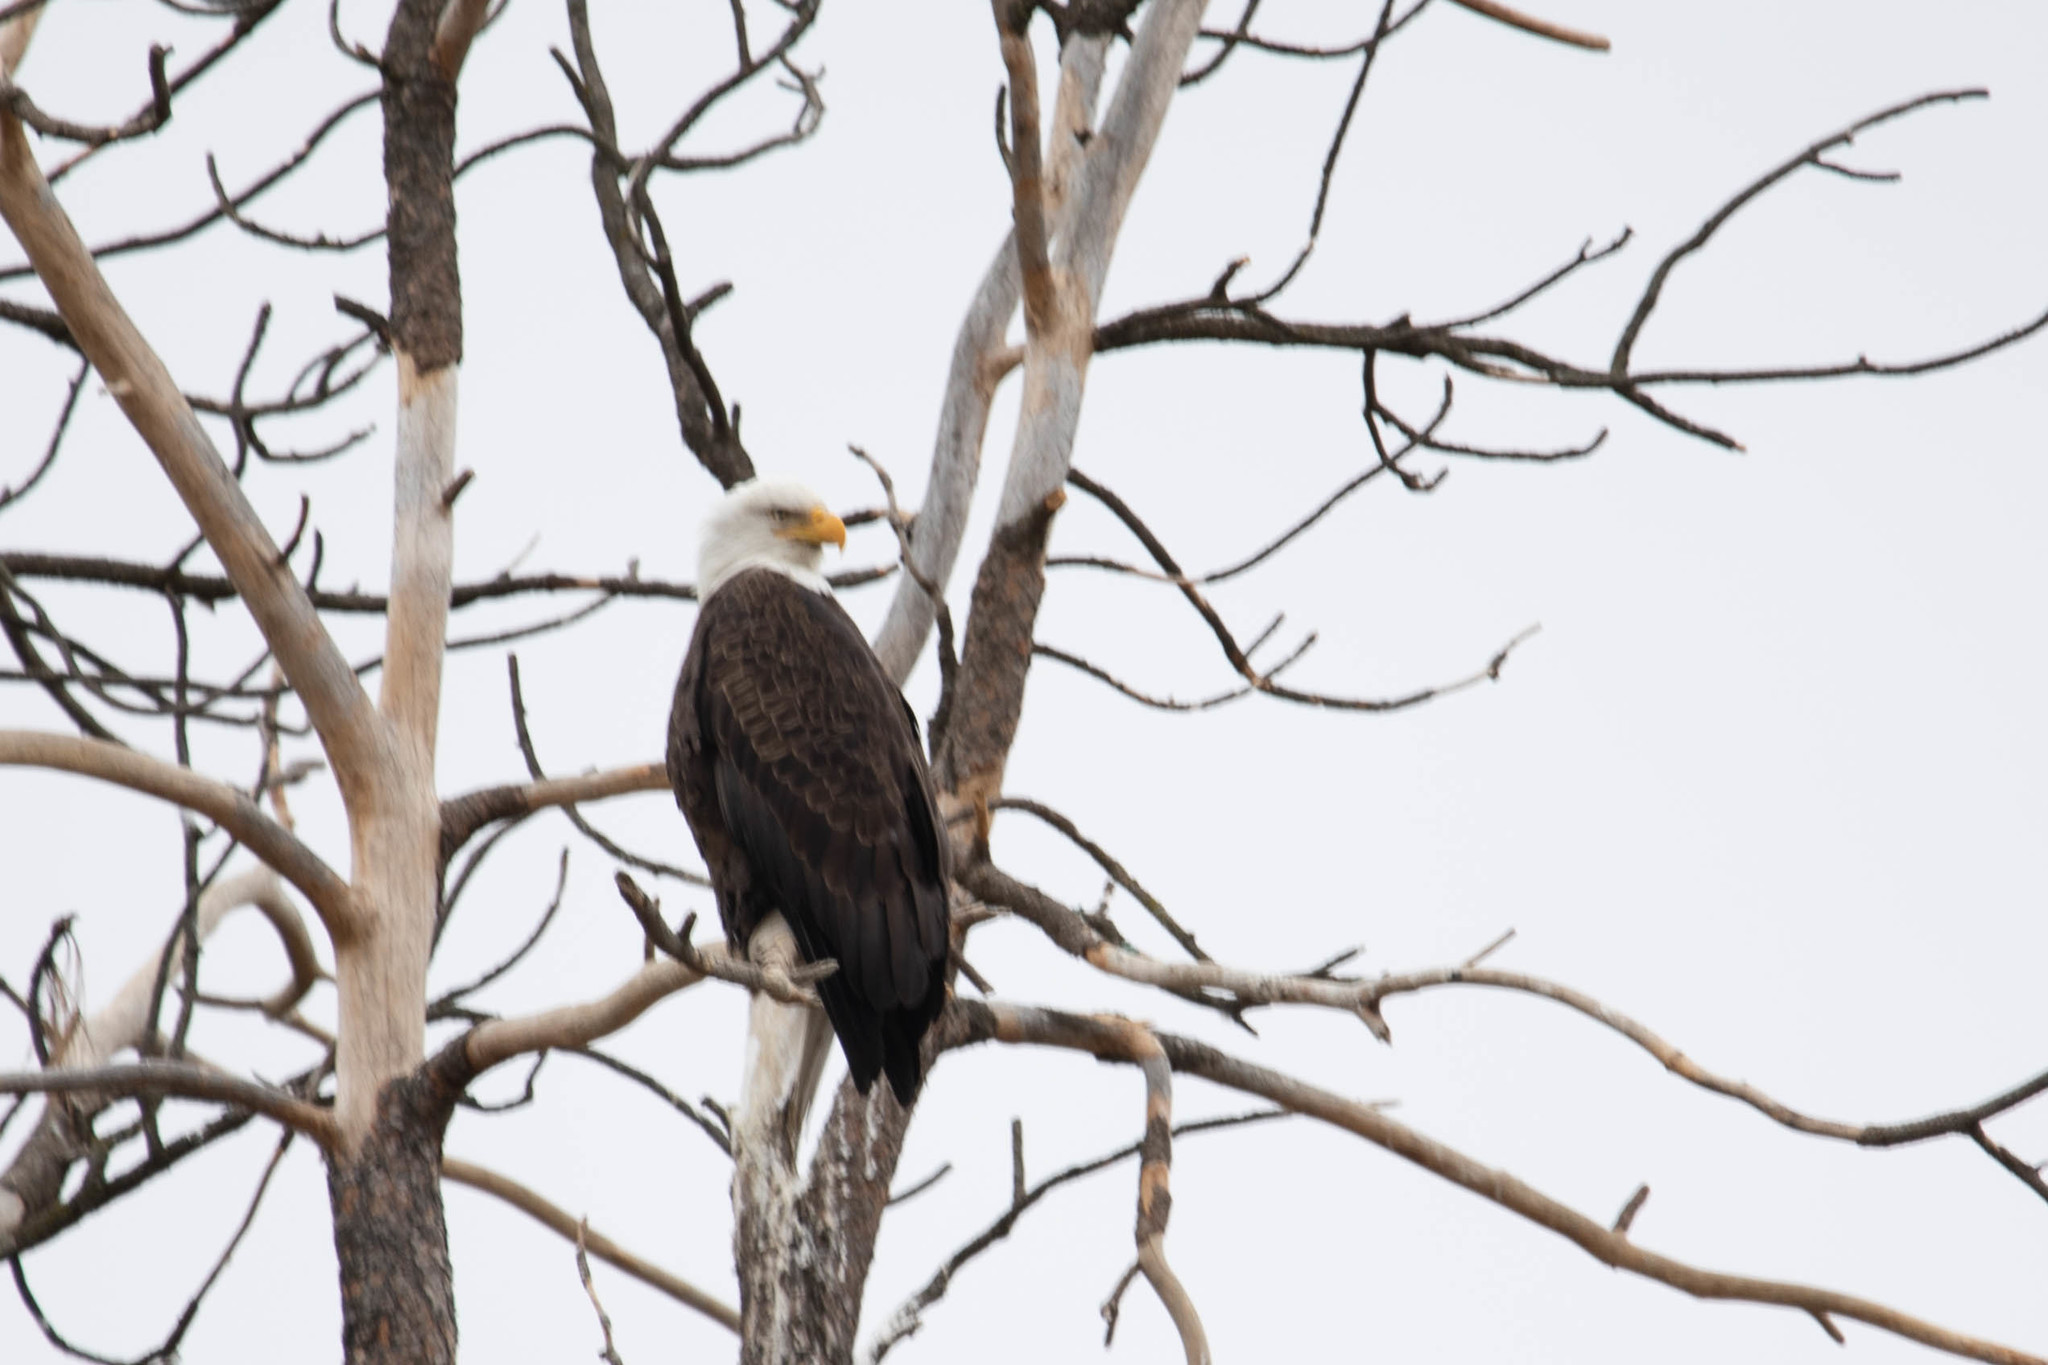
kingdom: Animalia
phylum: Chordata
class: Aves
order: Accipitriformes
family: Accipitridae
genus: Haliaeetus
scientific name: Haliaeetus leucocephalus
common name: Bald eagle
